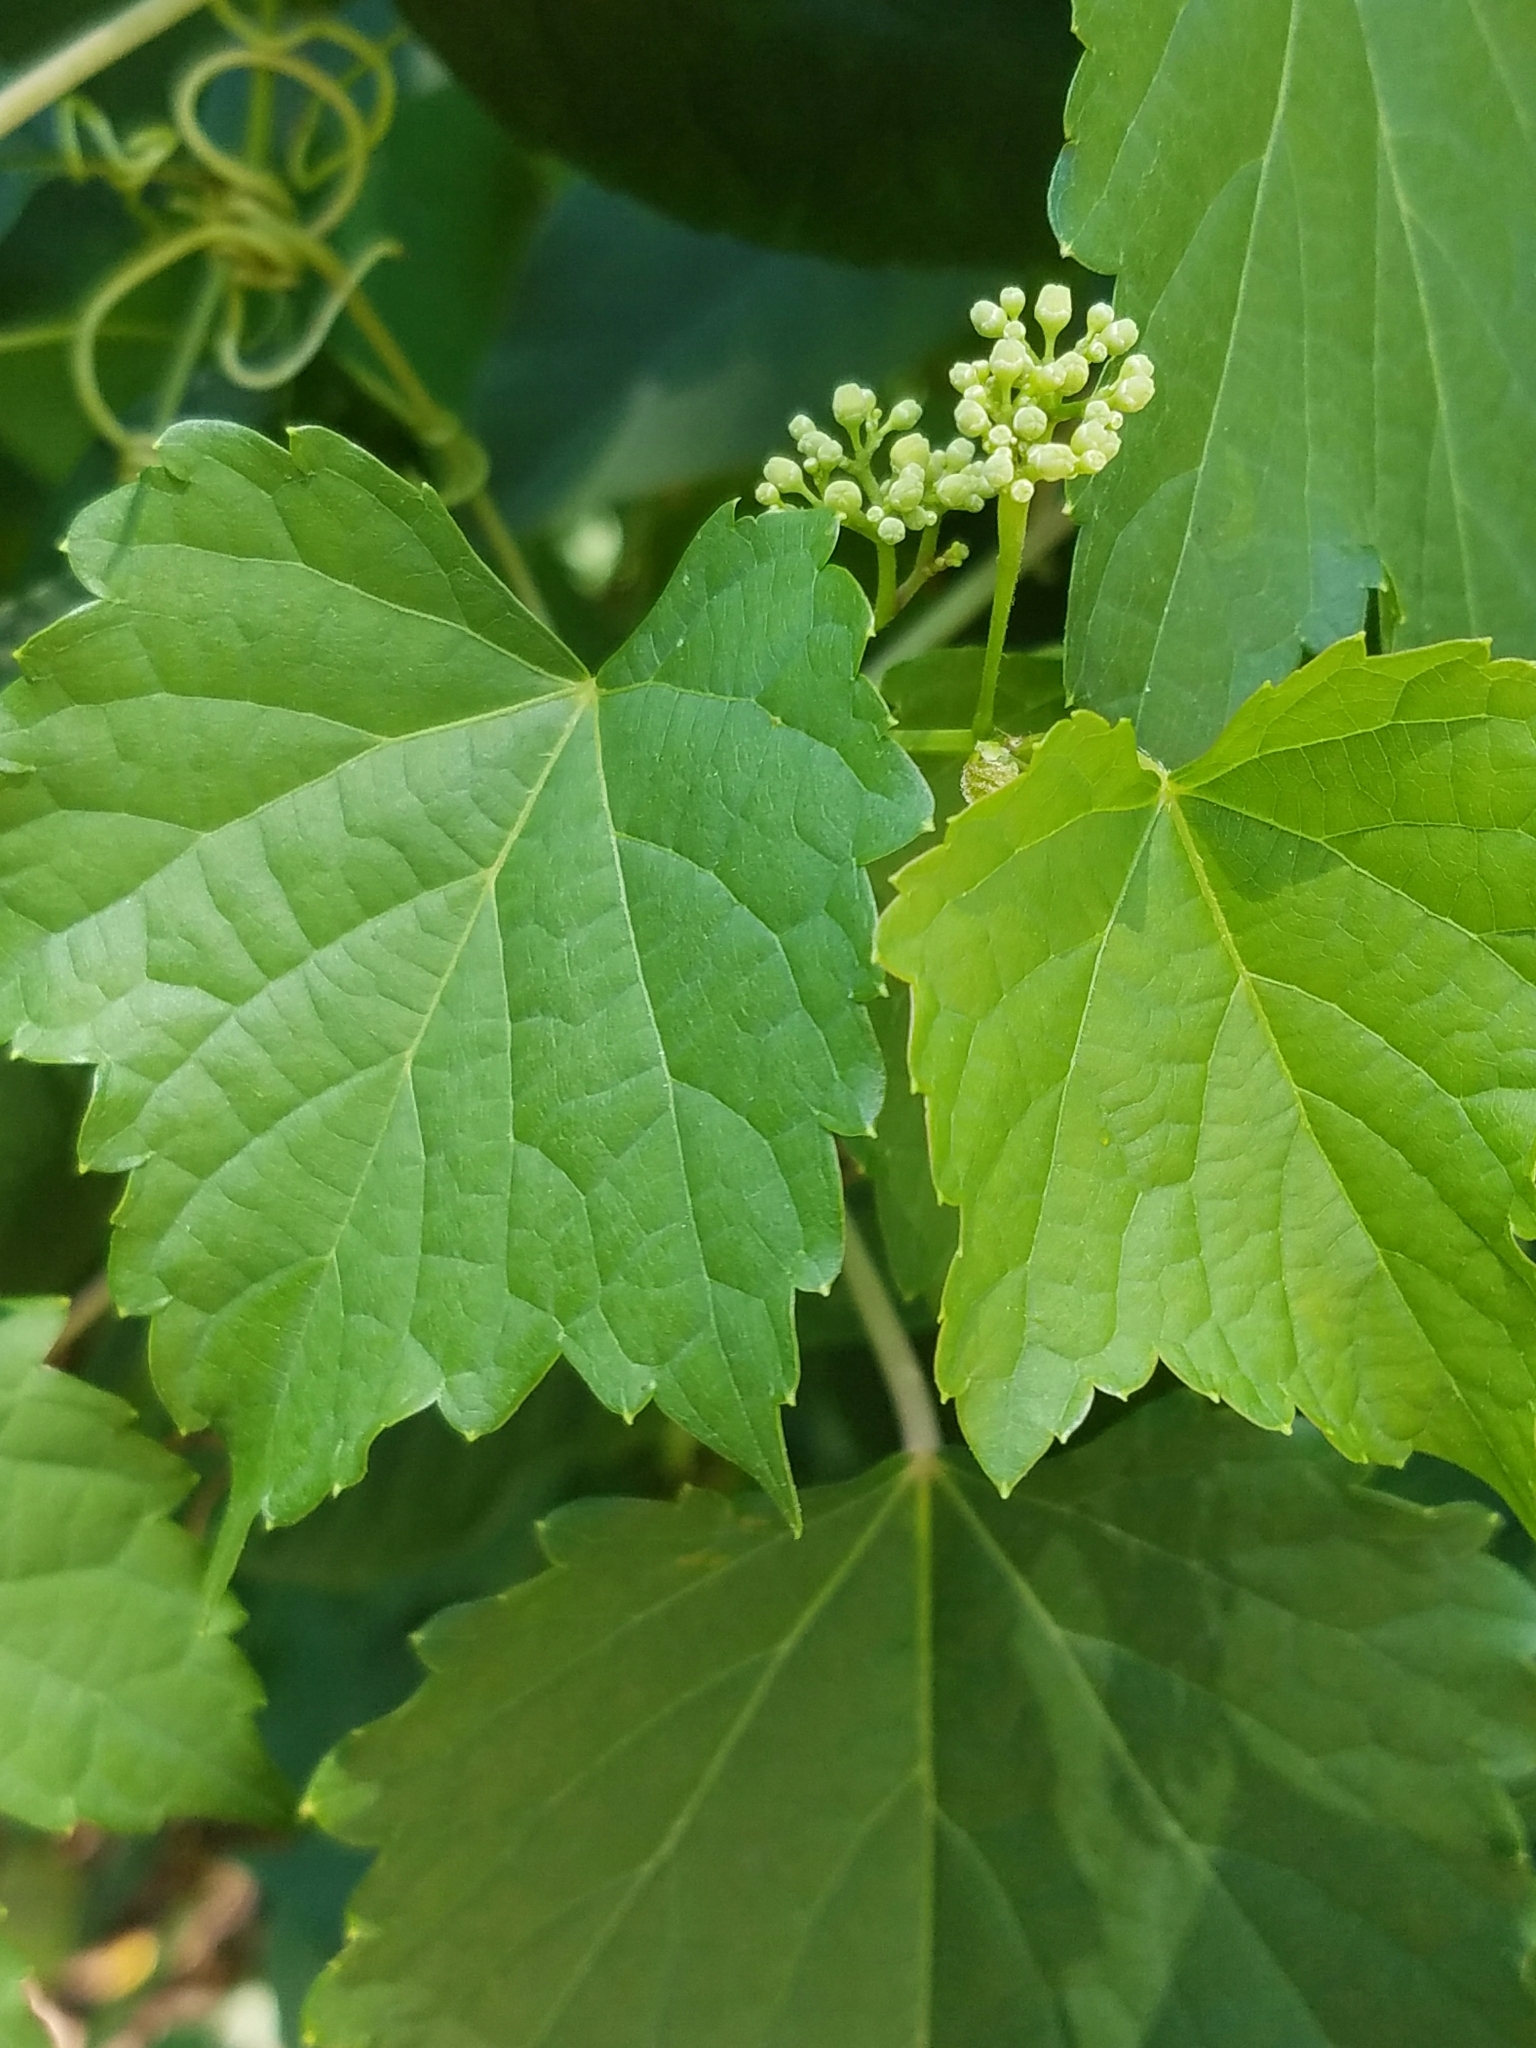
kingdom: Plantae
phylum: Tracheophyta
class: Magnoliopsida
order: Vitales
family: Vitaceae
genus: Ampelopsis
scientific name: Ampelopsis glandulosa
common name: Amur peppervine
